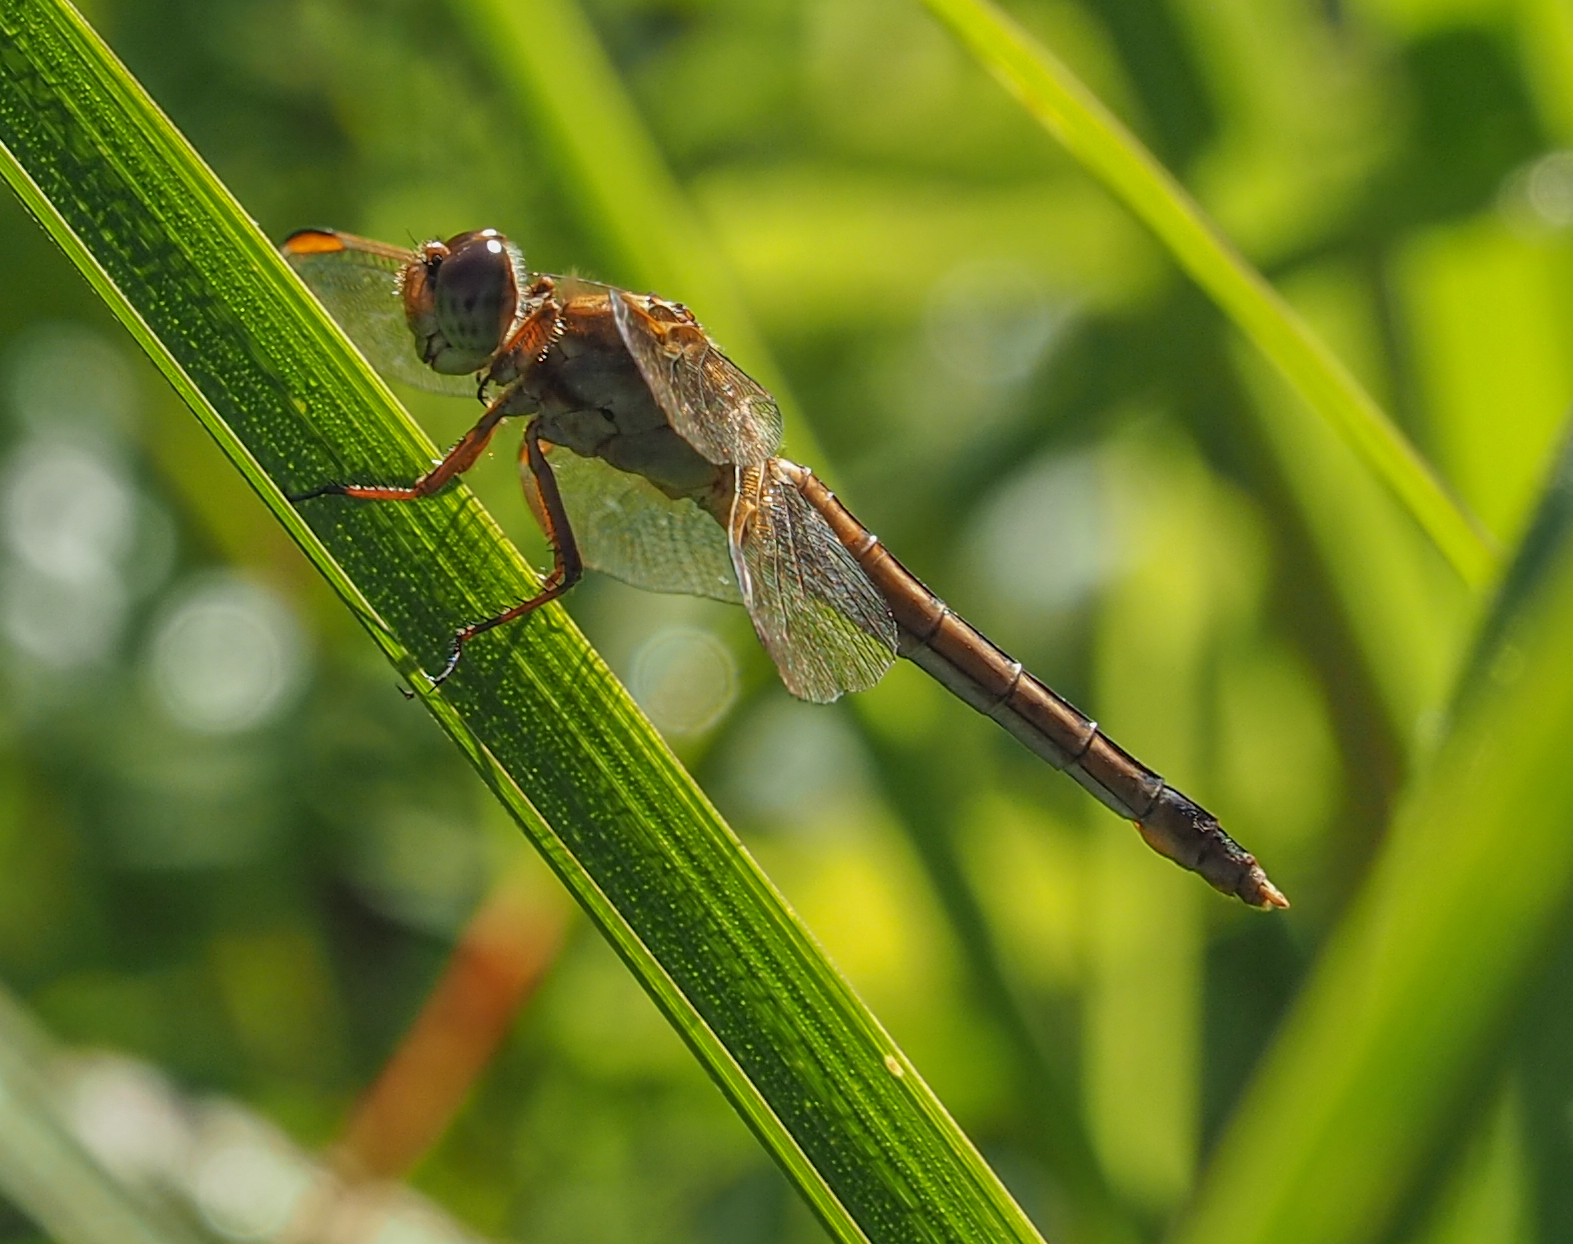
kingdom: Animalia
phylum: Arthropoda
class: Insecta
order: Odonata
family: Libellulidae
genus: Libellula
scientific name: Libellula needhami
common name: Needham's skimmer
